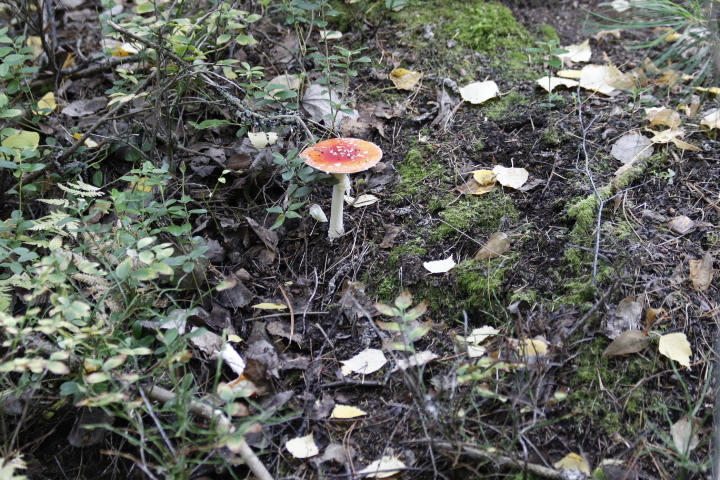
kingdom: Fungi
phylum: Basidiomycota
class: Agaricomycetes
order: Agaricales
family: Amanitaceae
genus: Amanita
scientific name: Amanita muscaria
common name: Fly agaric
